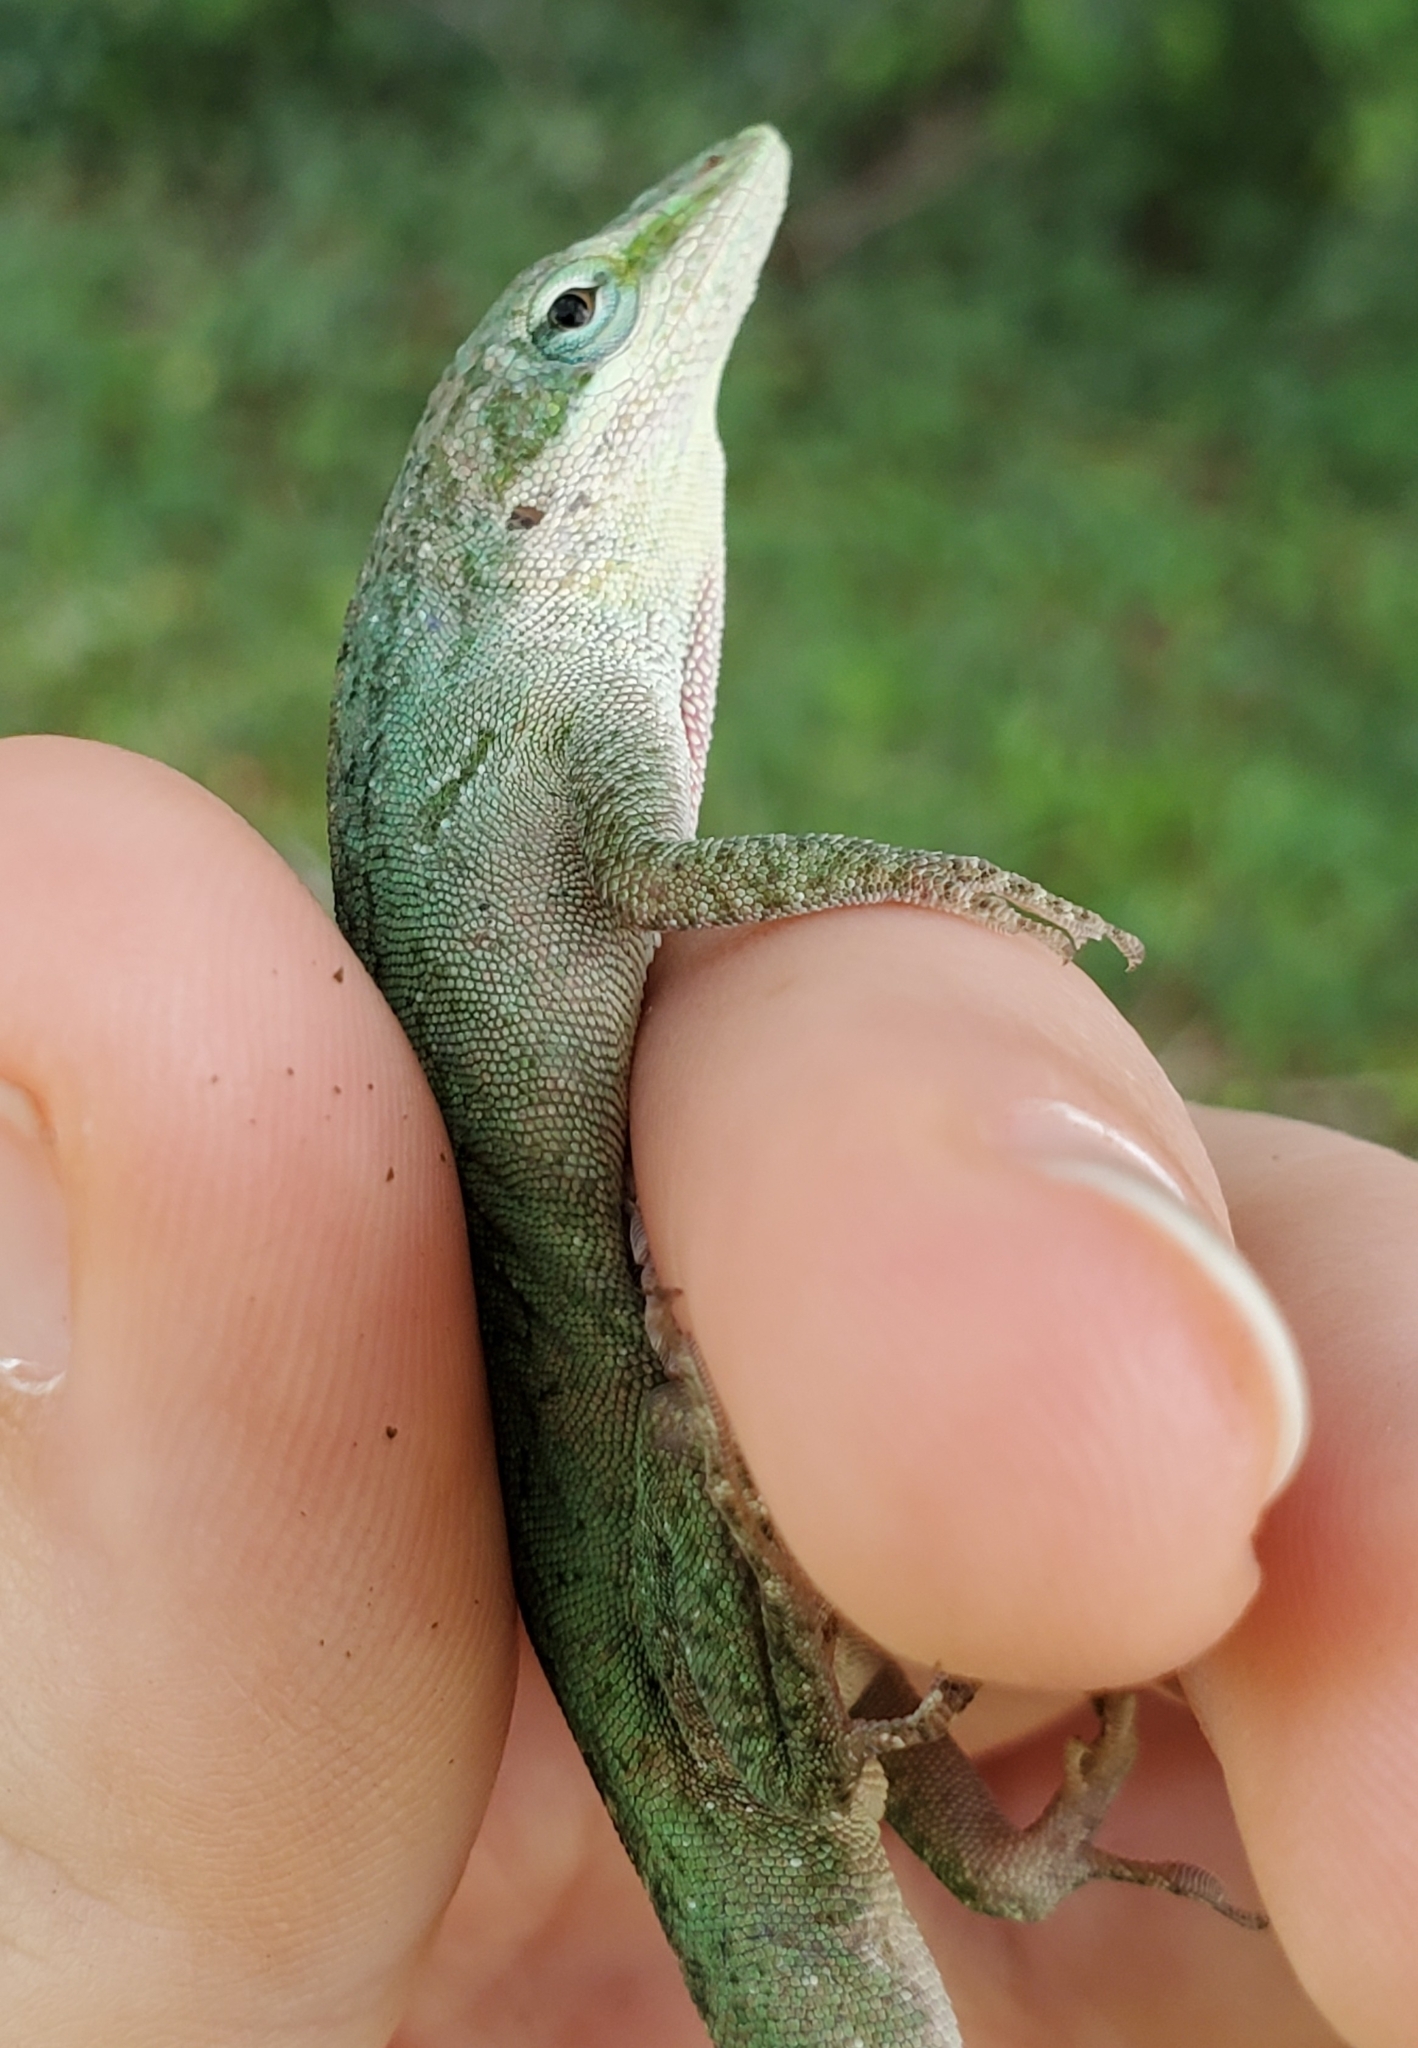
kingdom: Animalia
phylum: Chordata
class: Squamata
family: Dactyloidae
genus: Anolis
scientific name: Anolis carolinensis
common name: Green anole
